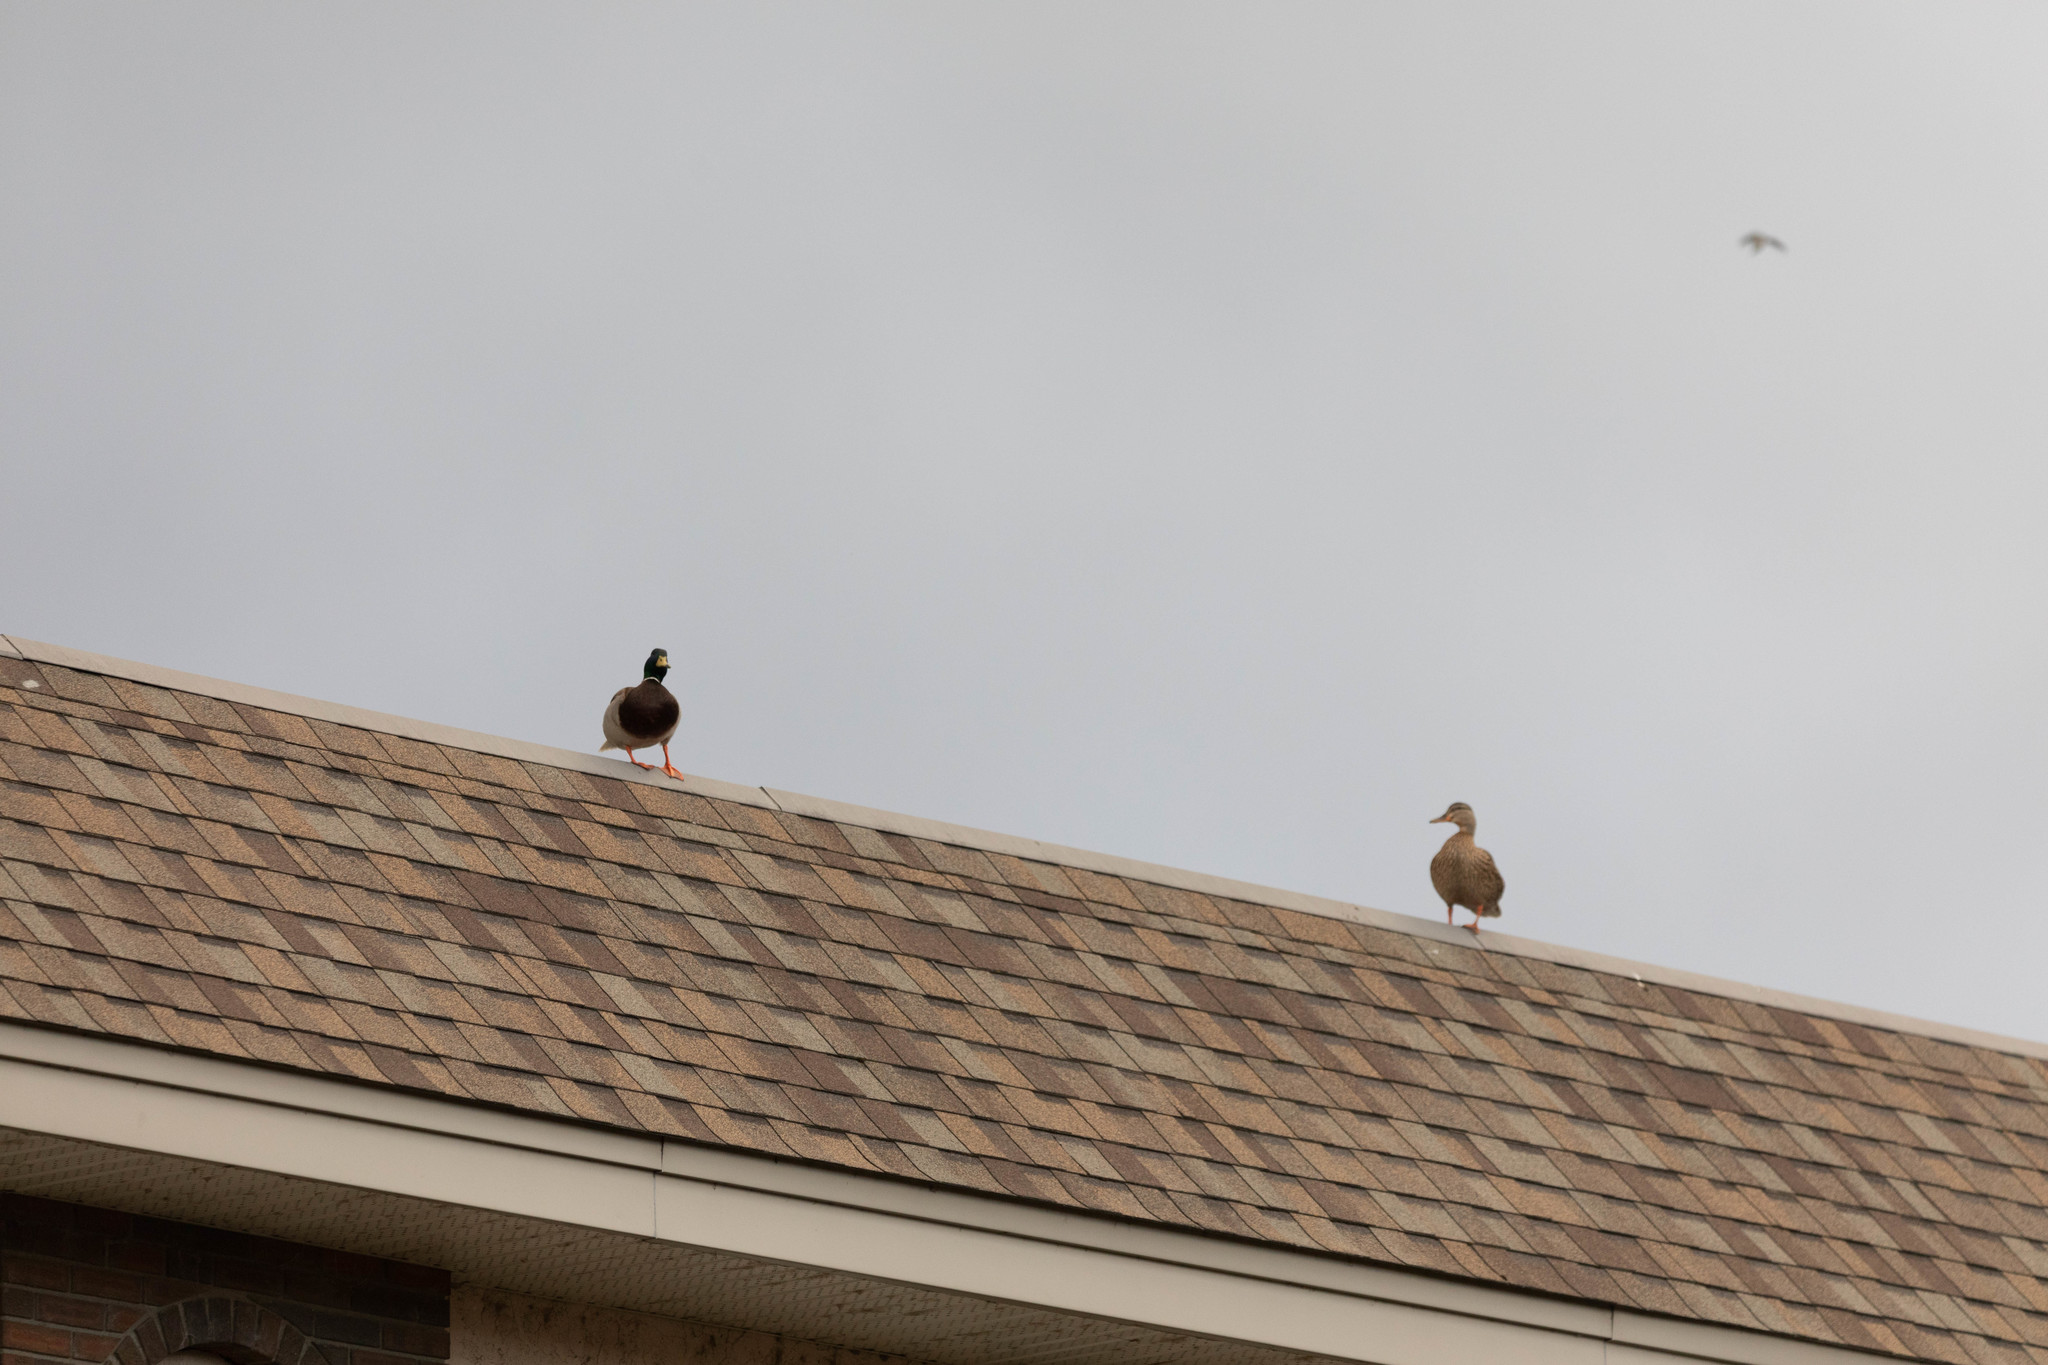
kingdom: Animalia
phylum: Chordata
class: Aves
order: Anseriformes
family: Anatidae
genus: Anas
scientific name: Anas platyrhynchos
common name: Mallard
